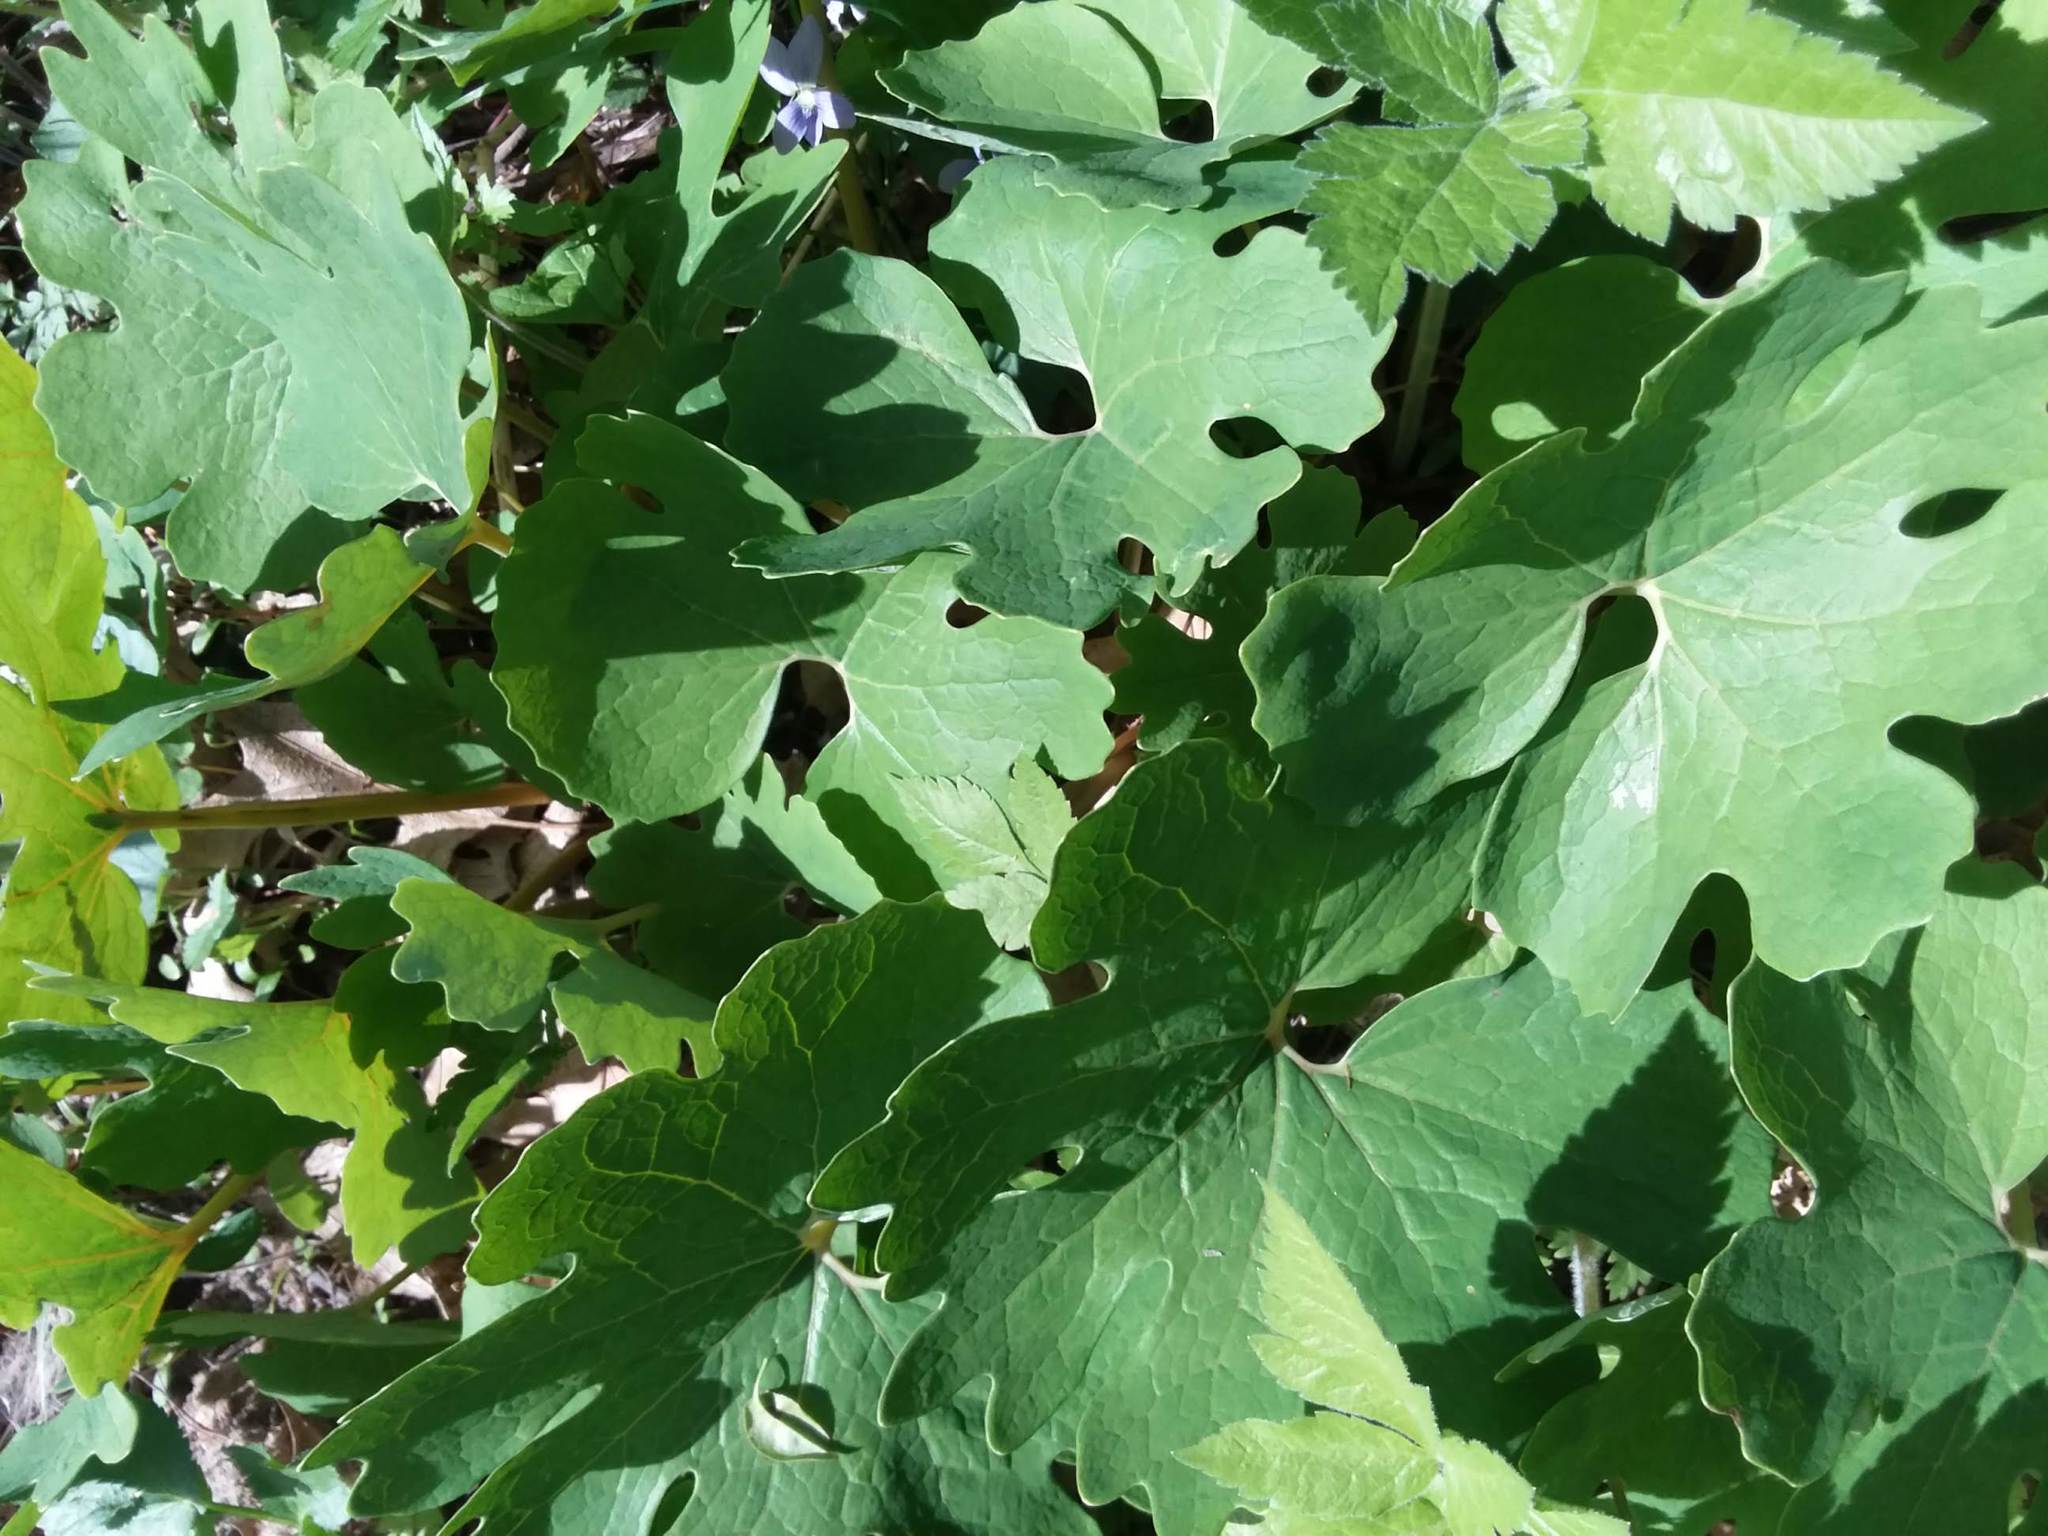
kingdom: Plantae
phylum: Tracheophyta
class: Magnoliopsida
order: Ranunculales
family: Papaveraceae
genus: Sanguinaria
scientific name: Sanguinaria canadensis
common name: Bloodroot
